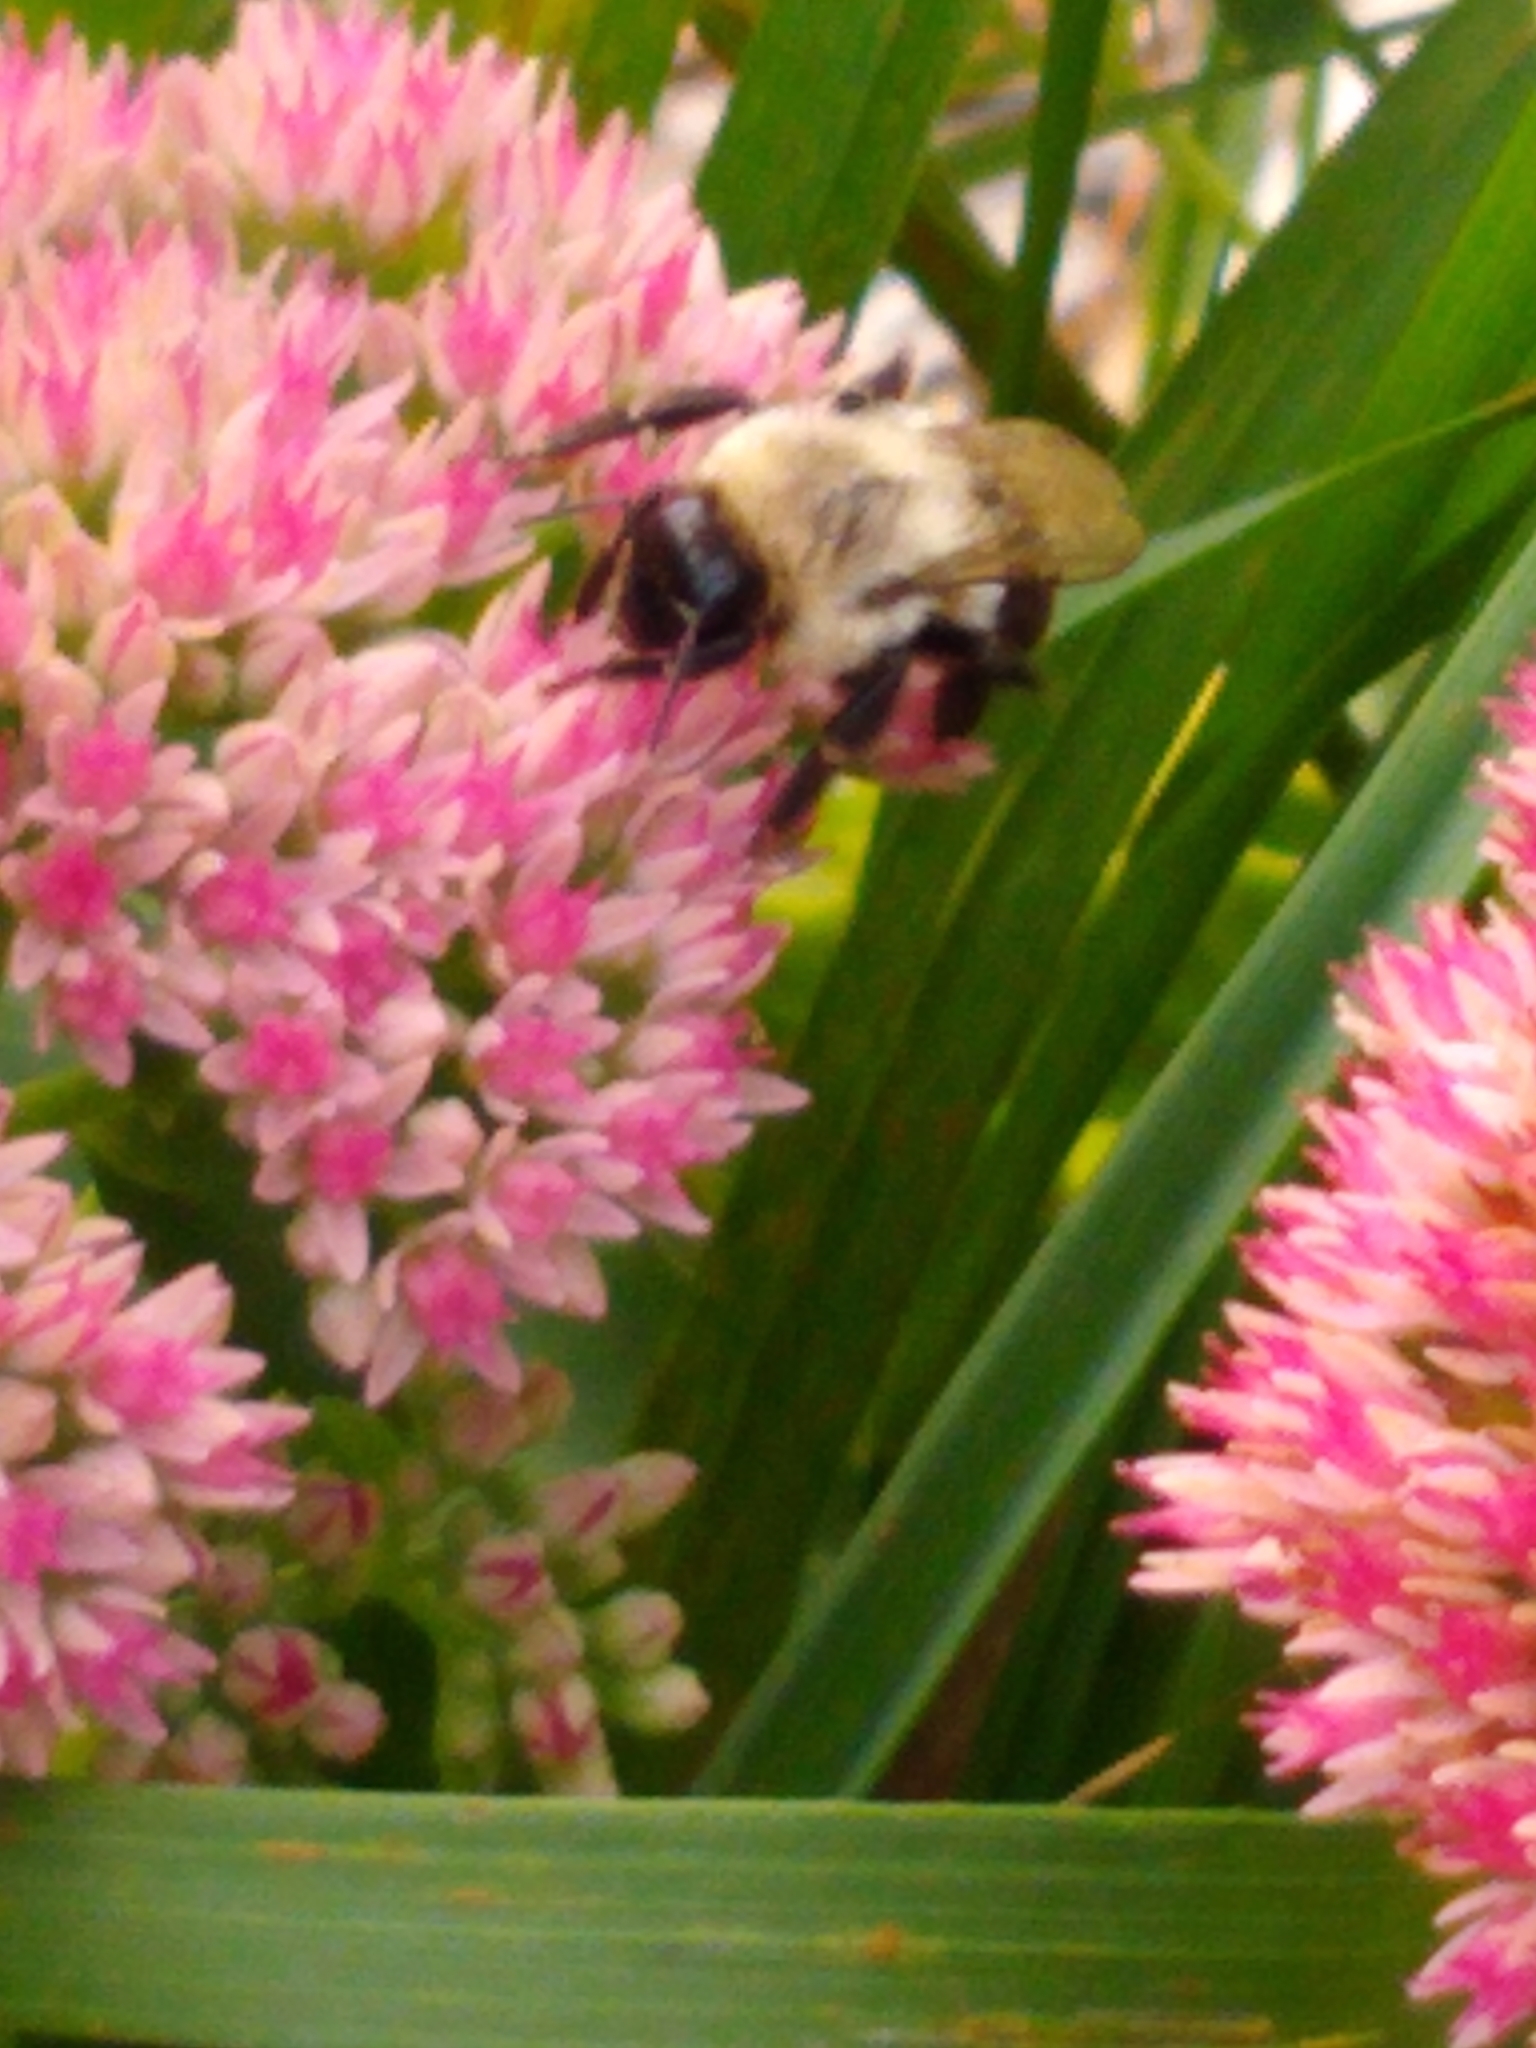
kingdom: Animalia
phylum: Arthropoda
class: Insecta
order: Hymenoptera
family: Apidae
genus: Bombus
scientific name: Bombus impatiens
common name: Common eastern bumble bee
